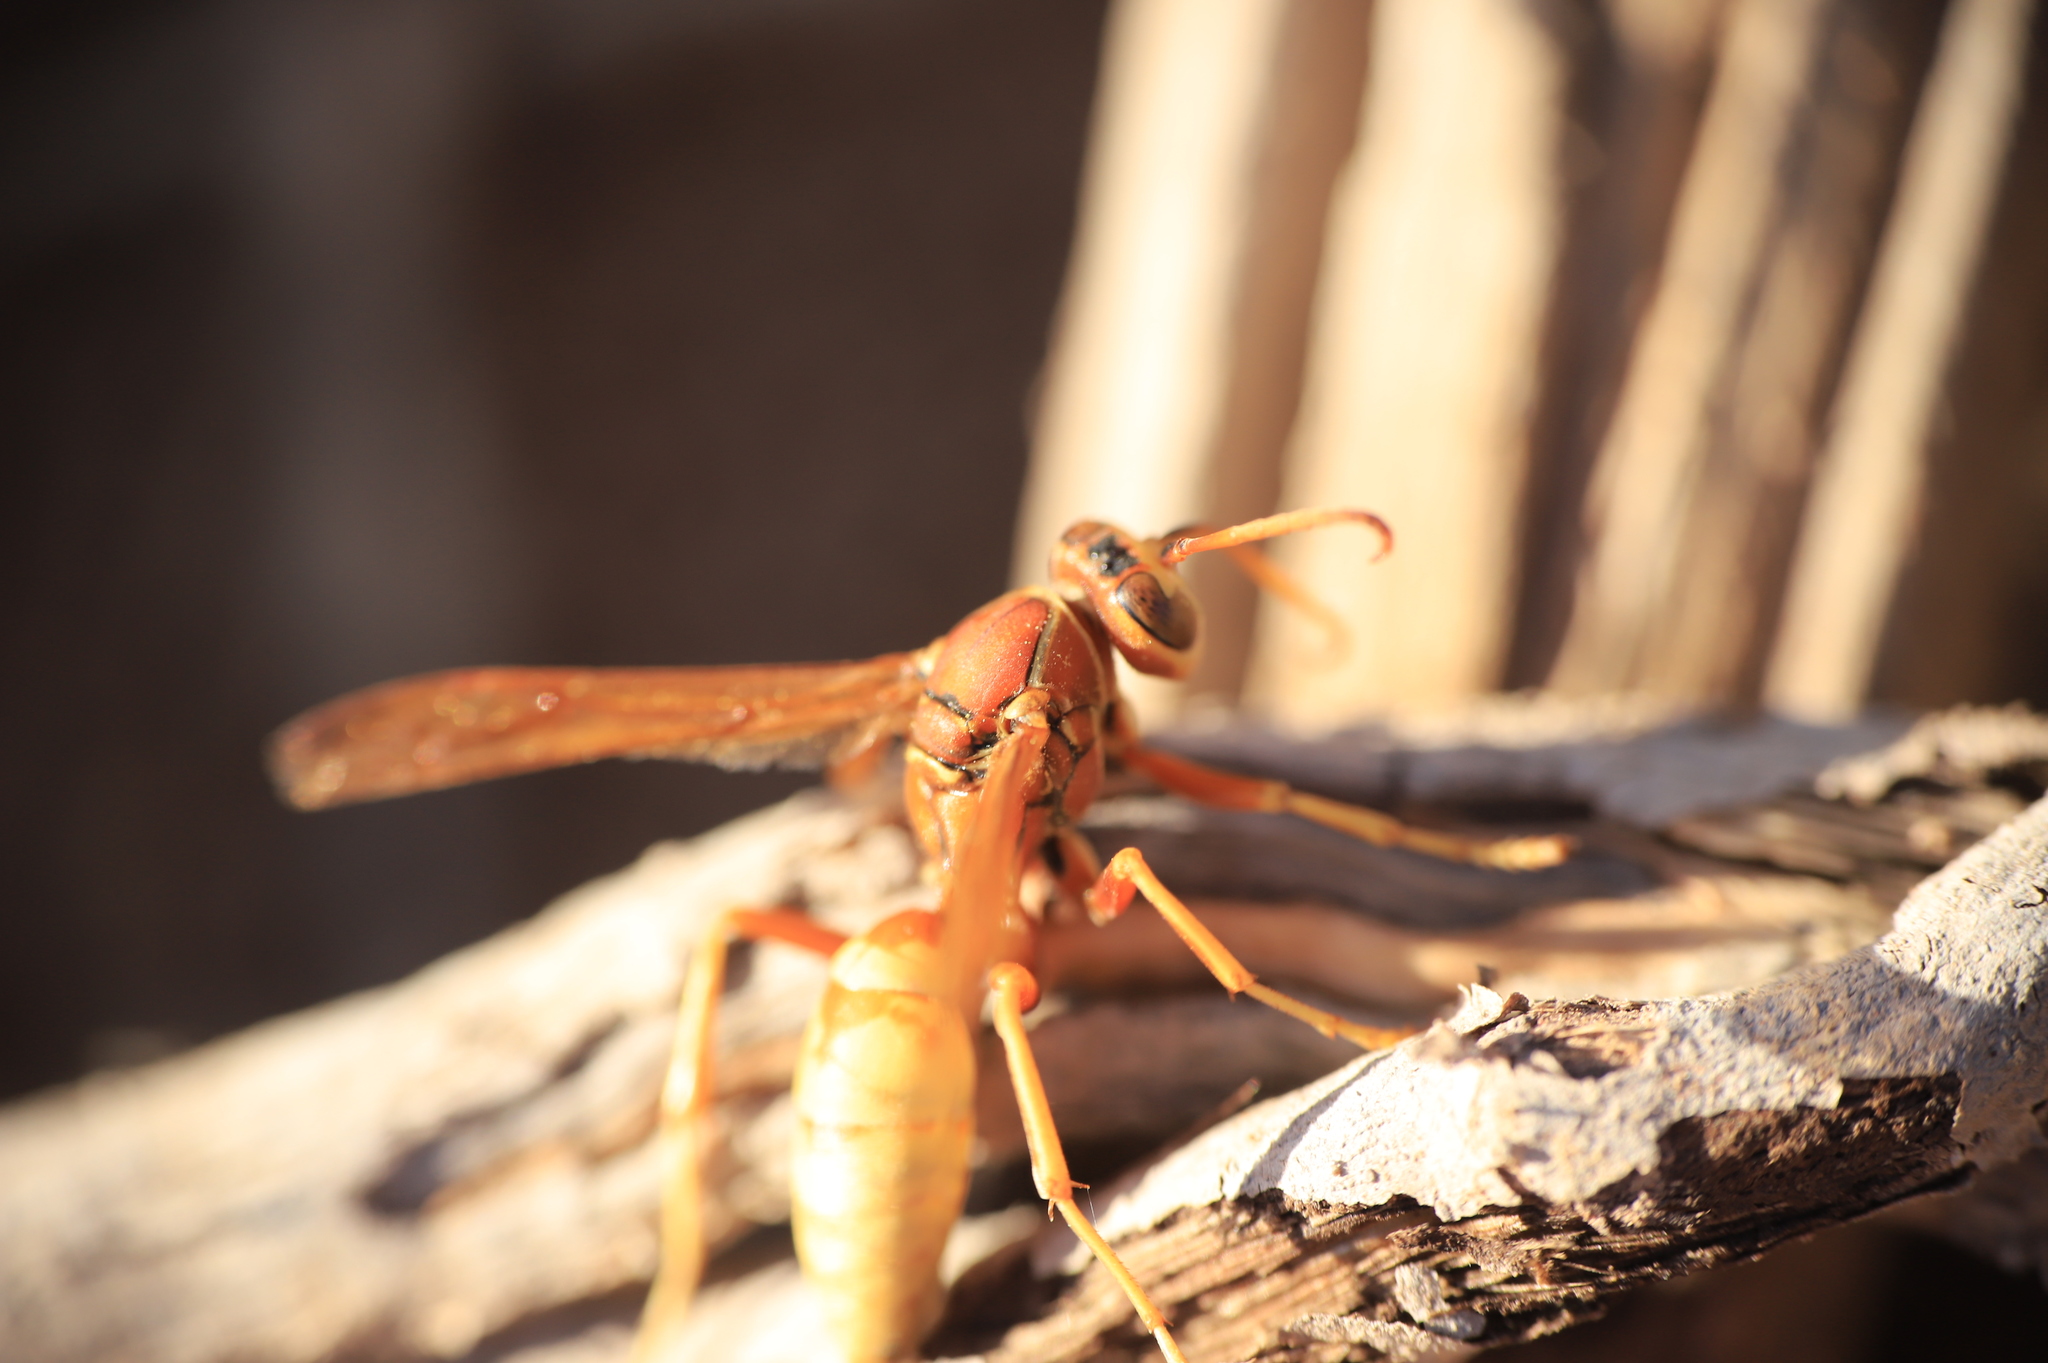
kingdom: Animalia
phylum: Arthropoda
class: Insecta
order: Hymenoptera
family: Eumenidae
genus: Polistes
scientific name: Polistes aurifer
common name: Paper wasp
